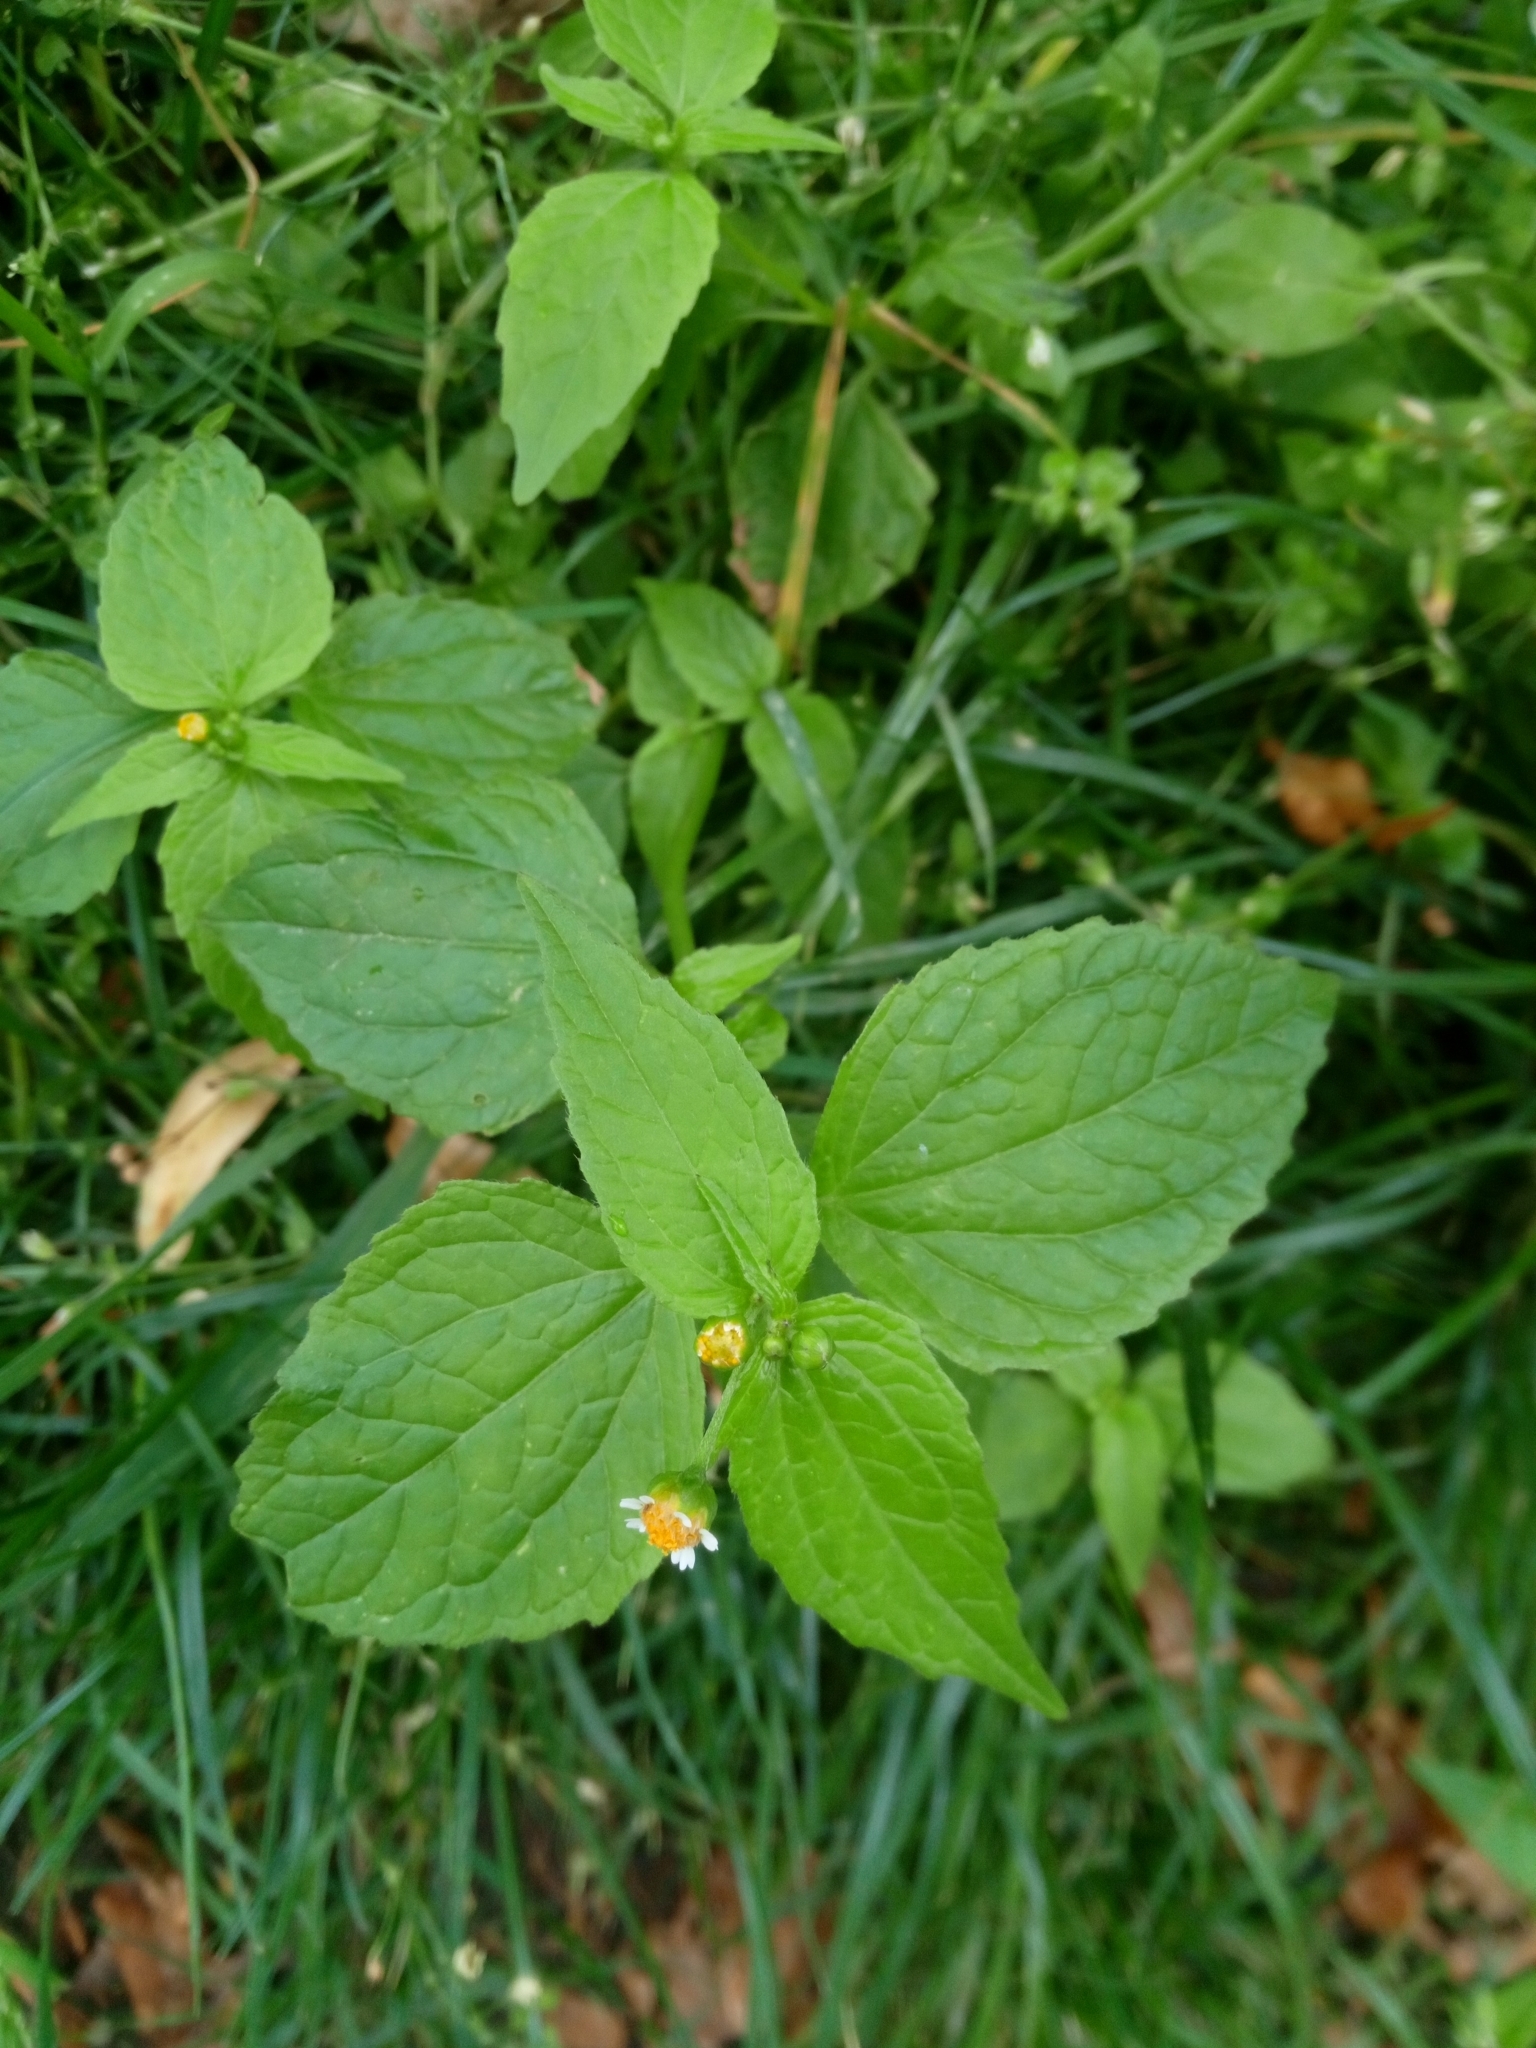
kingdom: Plantae
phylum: Tracheophyta
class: Magnoliopsida
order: Asterales
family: Asteraceae
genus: Galinsoga
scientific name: Galinsoga parviflora
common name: Gallant soldier
